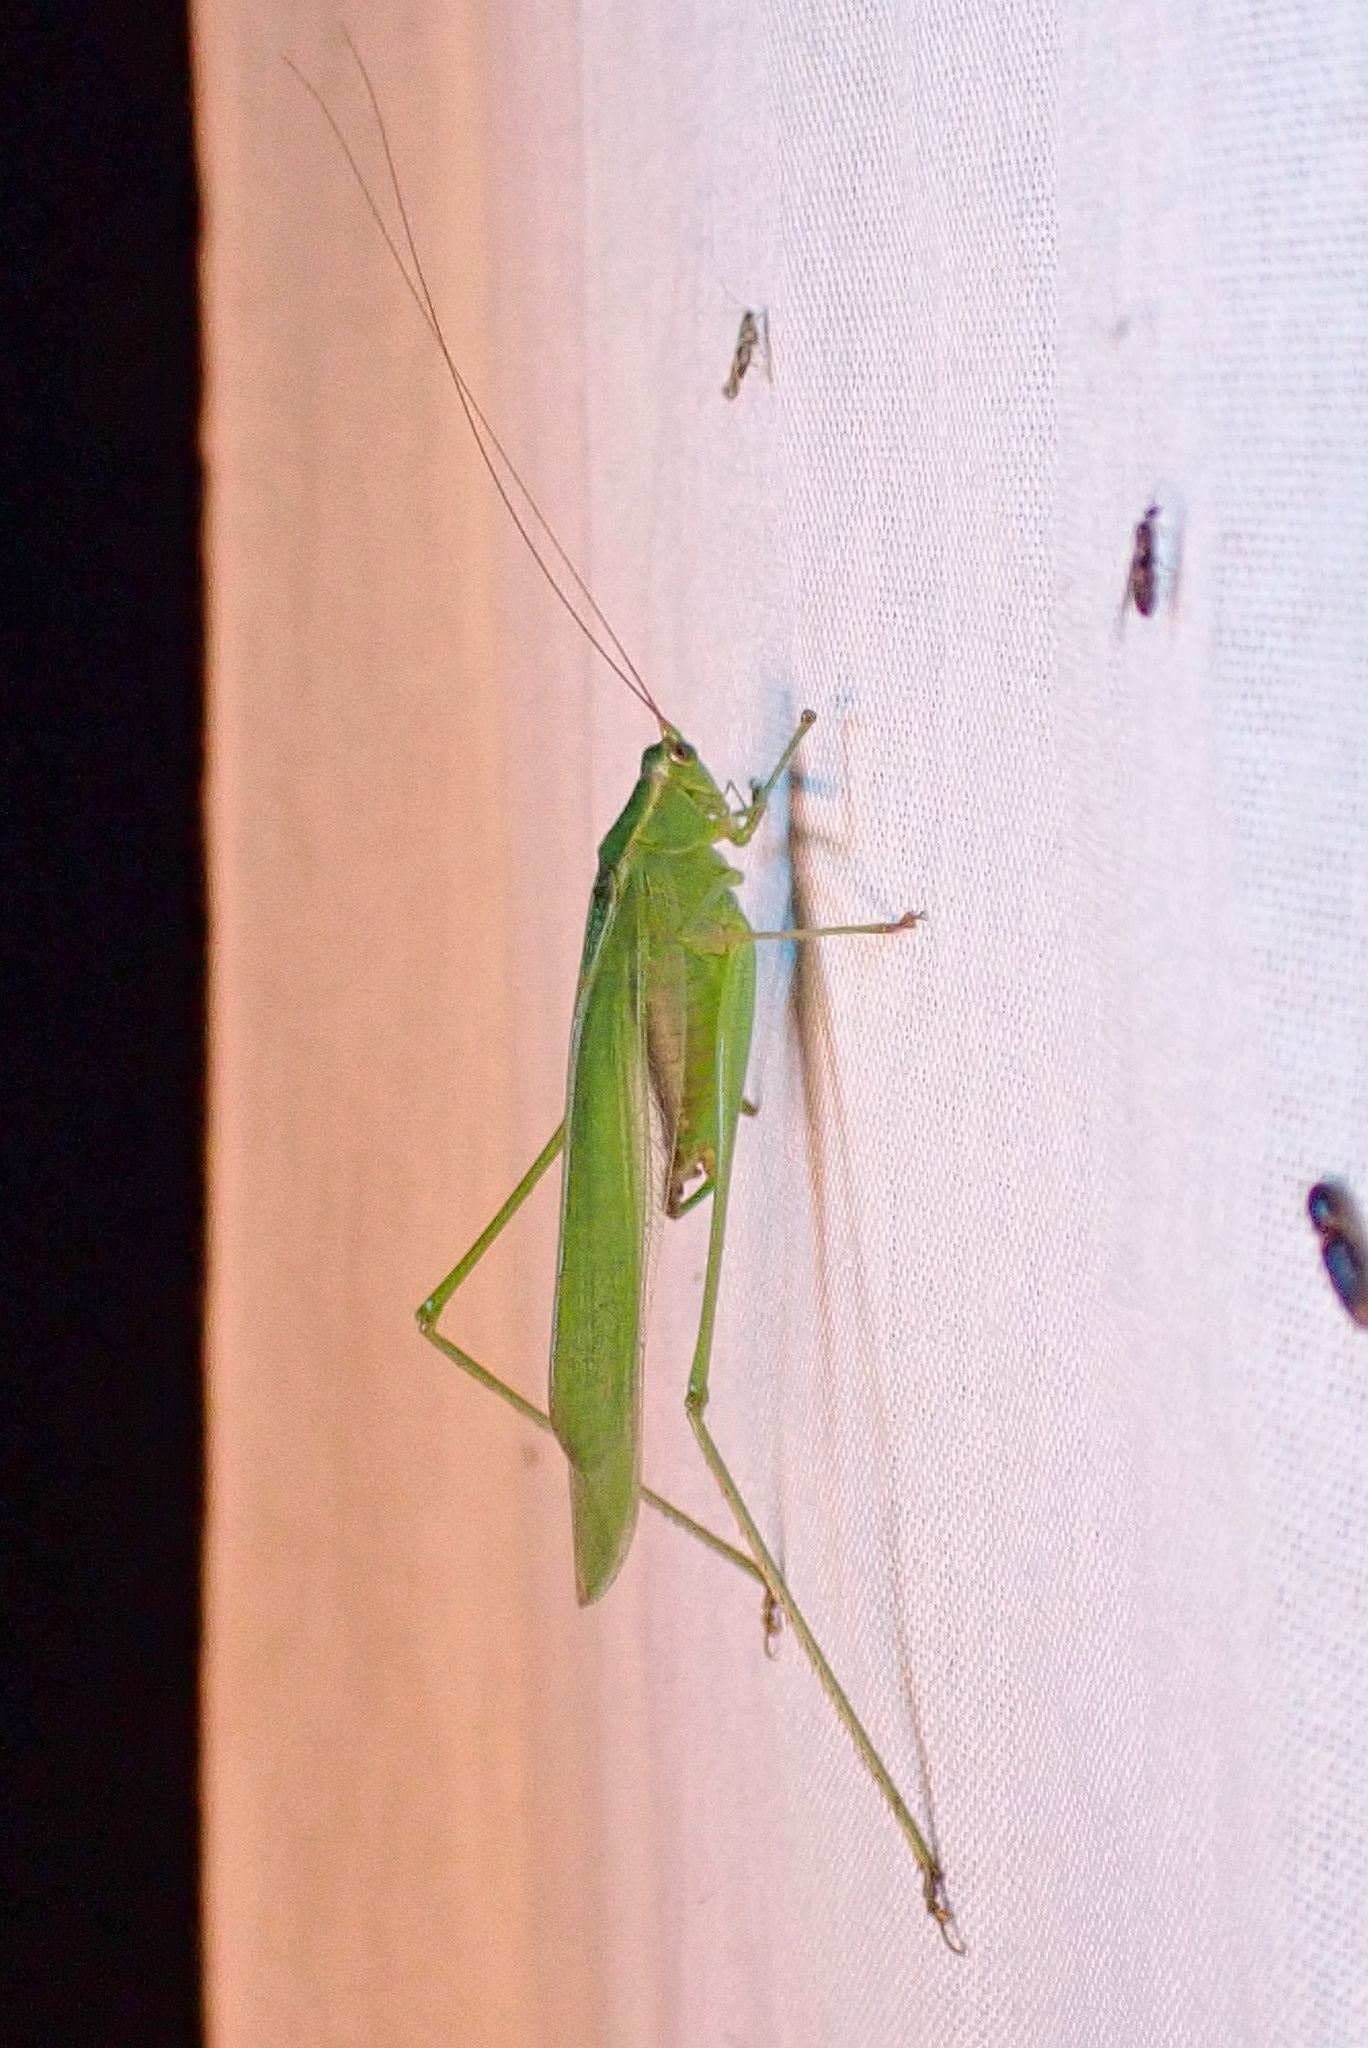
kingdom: Animalia
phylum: Arthropoda
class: Insecta
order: Orthoptera
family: Tettigoniidae
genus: Scudderia
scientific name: Scudderia mexicana
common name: Mexican bush katydid
